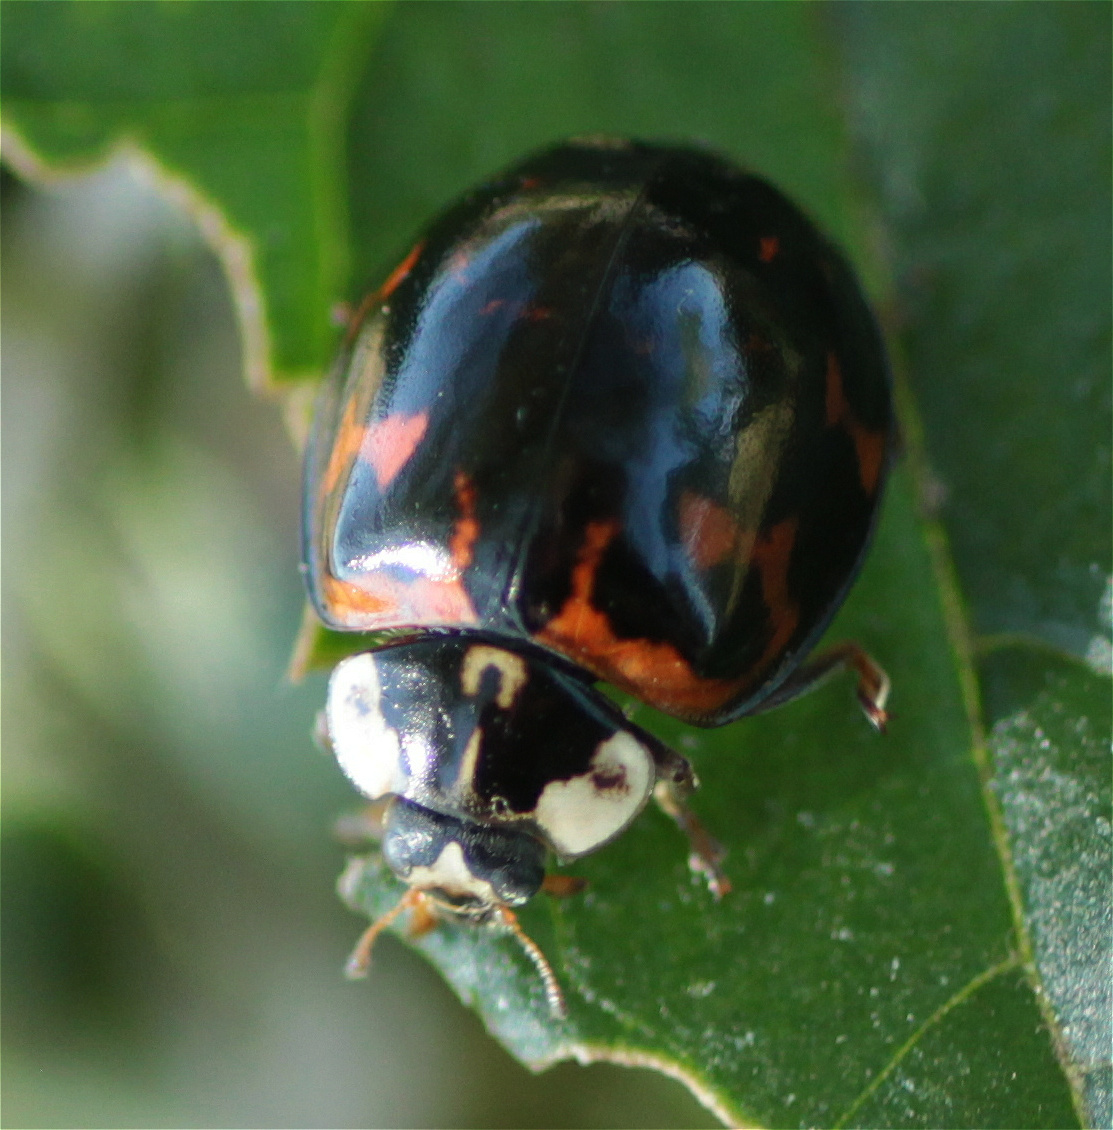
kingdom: Animalia
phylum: Arthropoda
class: Insecta
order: Coleoptera
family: Coccinellidae
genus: Harmonia
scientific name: Harmonia axyridis
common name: Harlequin ladybird
